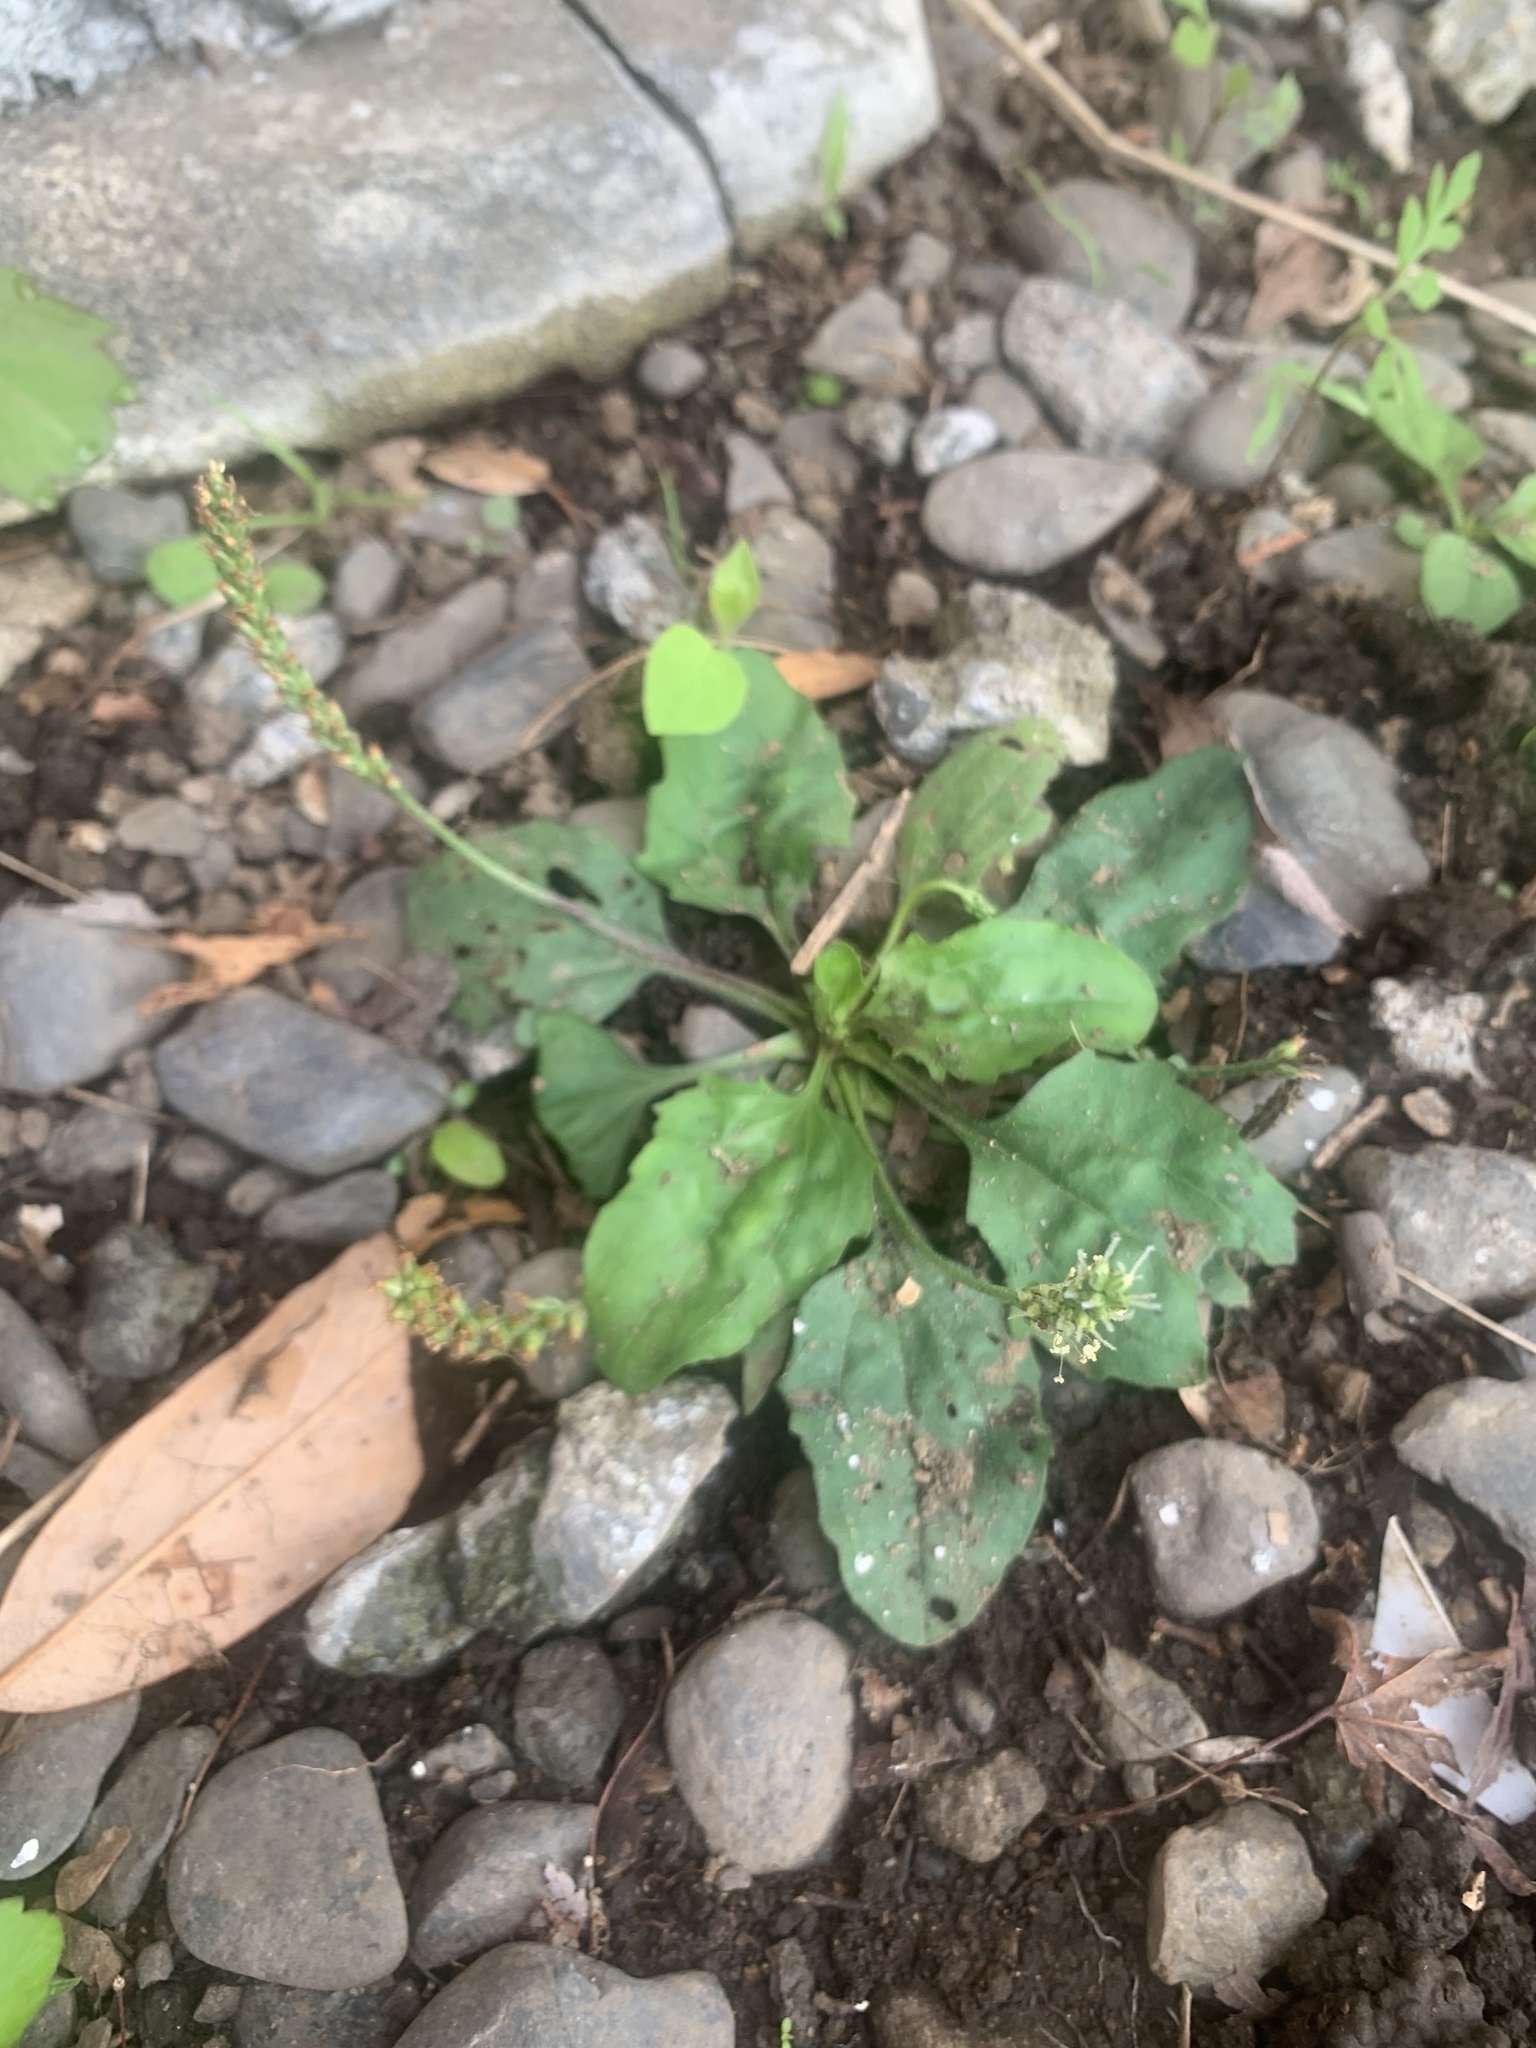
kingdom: Plantae
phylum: Tracheophyta
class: Magnoliopsida
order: Lamiales
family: Plantaginaceae
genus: Plantago
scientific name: Plantago asiatica
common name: Psyllium
